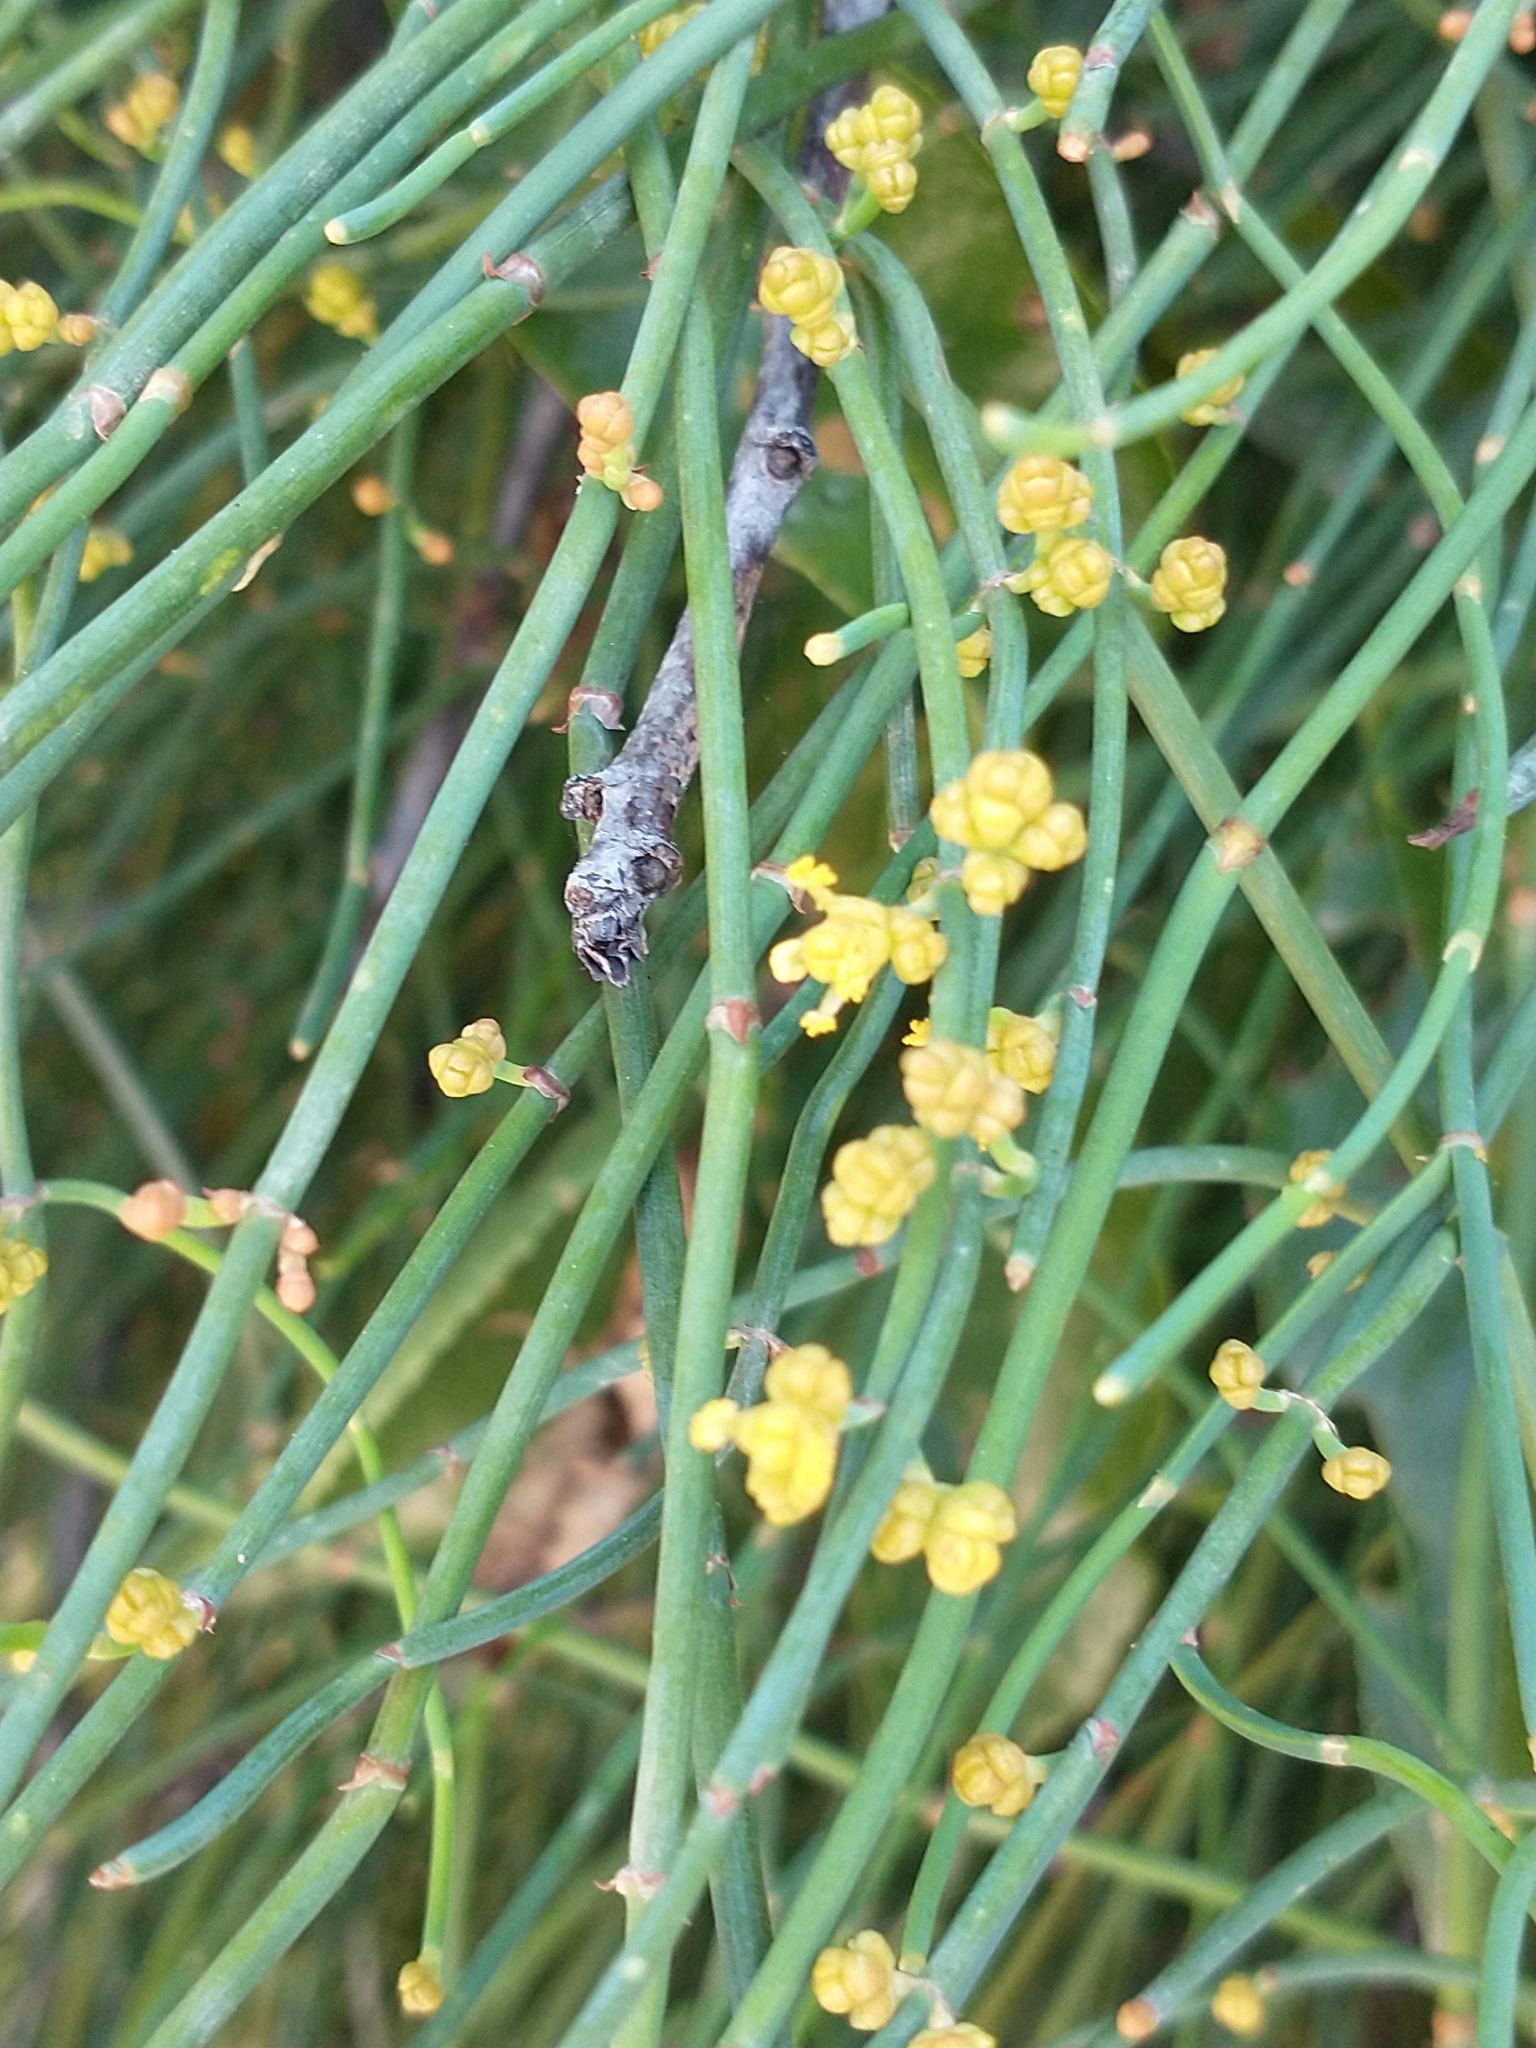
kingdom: Plantae
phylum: Tracheophyta
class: Gnetopsida
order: Ephedrales
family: Ephedraceae
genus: Ephedra
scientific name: Ephedra foeminea
